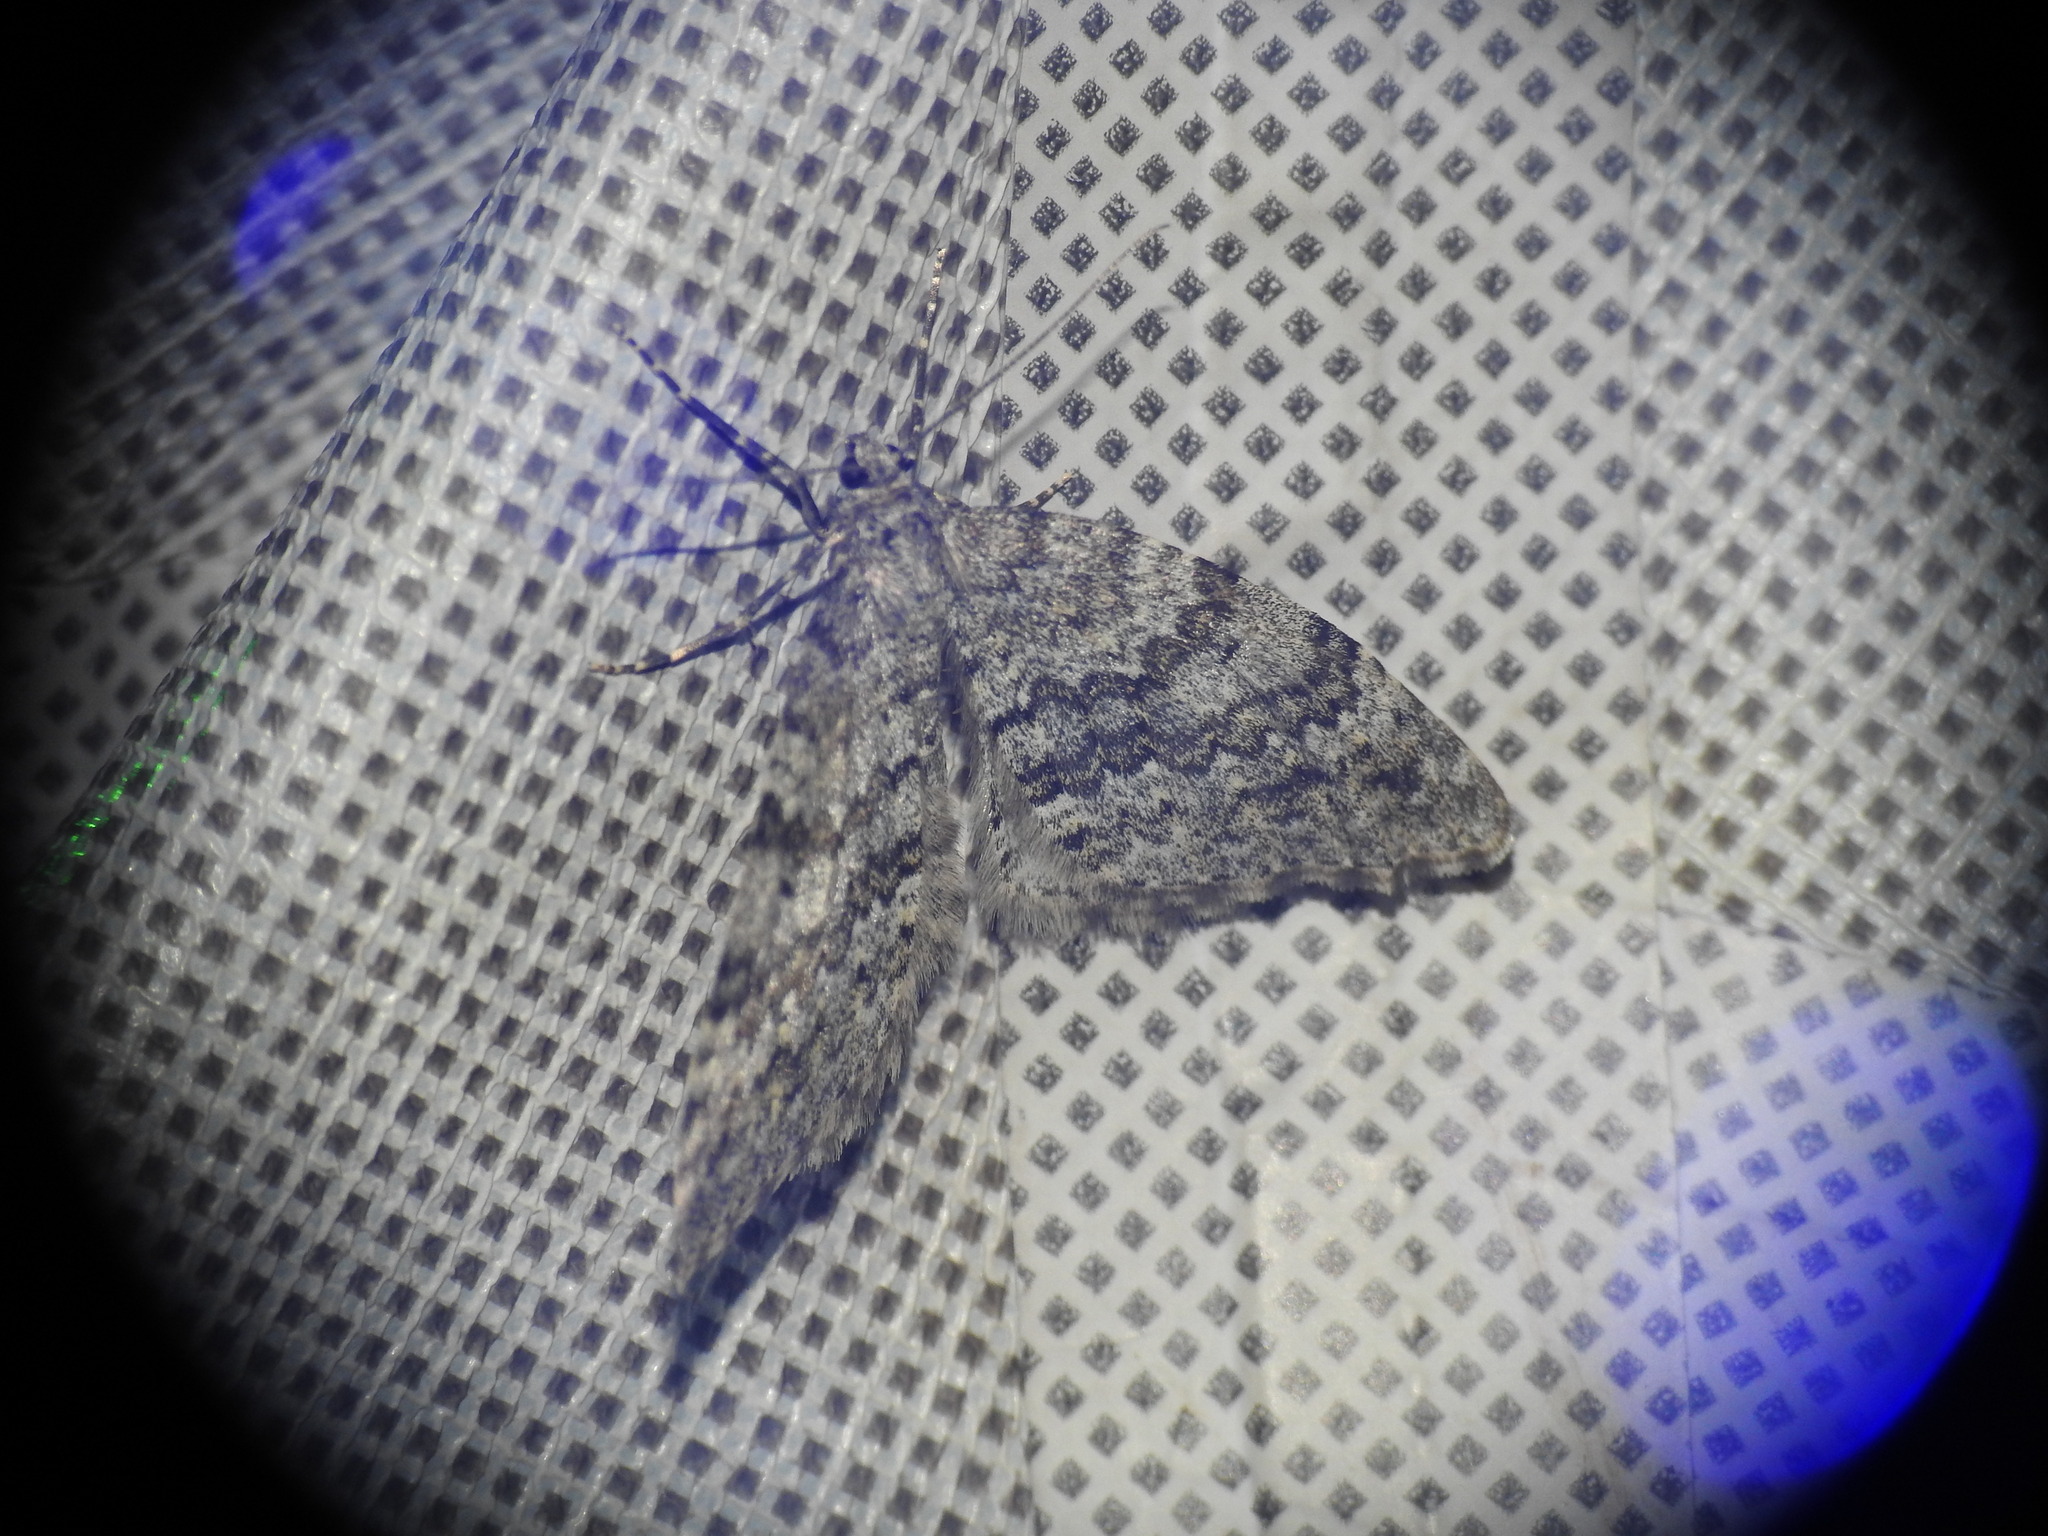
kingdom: Animalia
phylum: Arthropoda
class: Insecta
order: Lepidoptera
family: Geometridae
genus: Entephria
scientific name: Entephria caesiata
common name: Grey mountain moth
